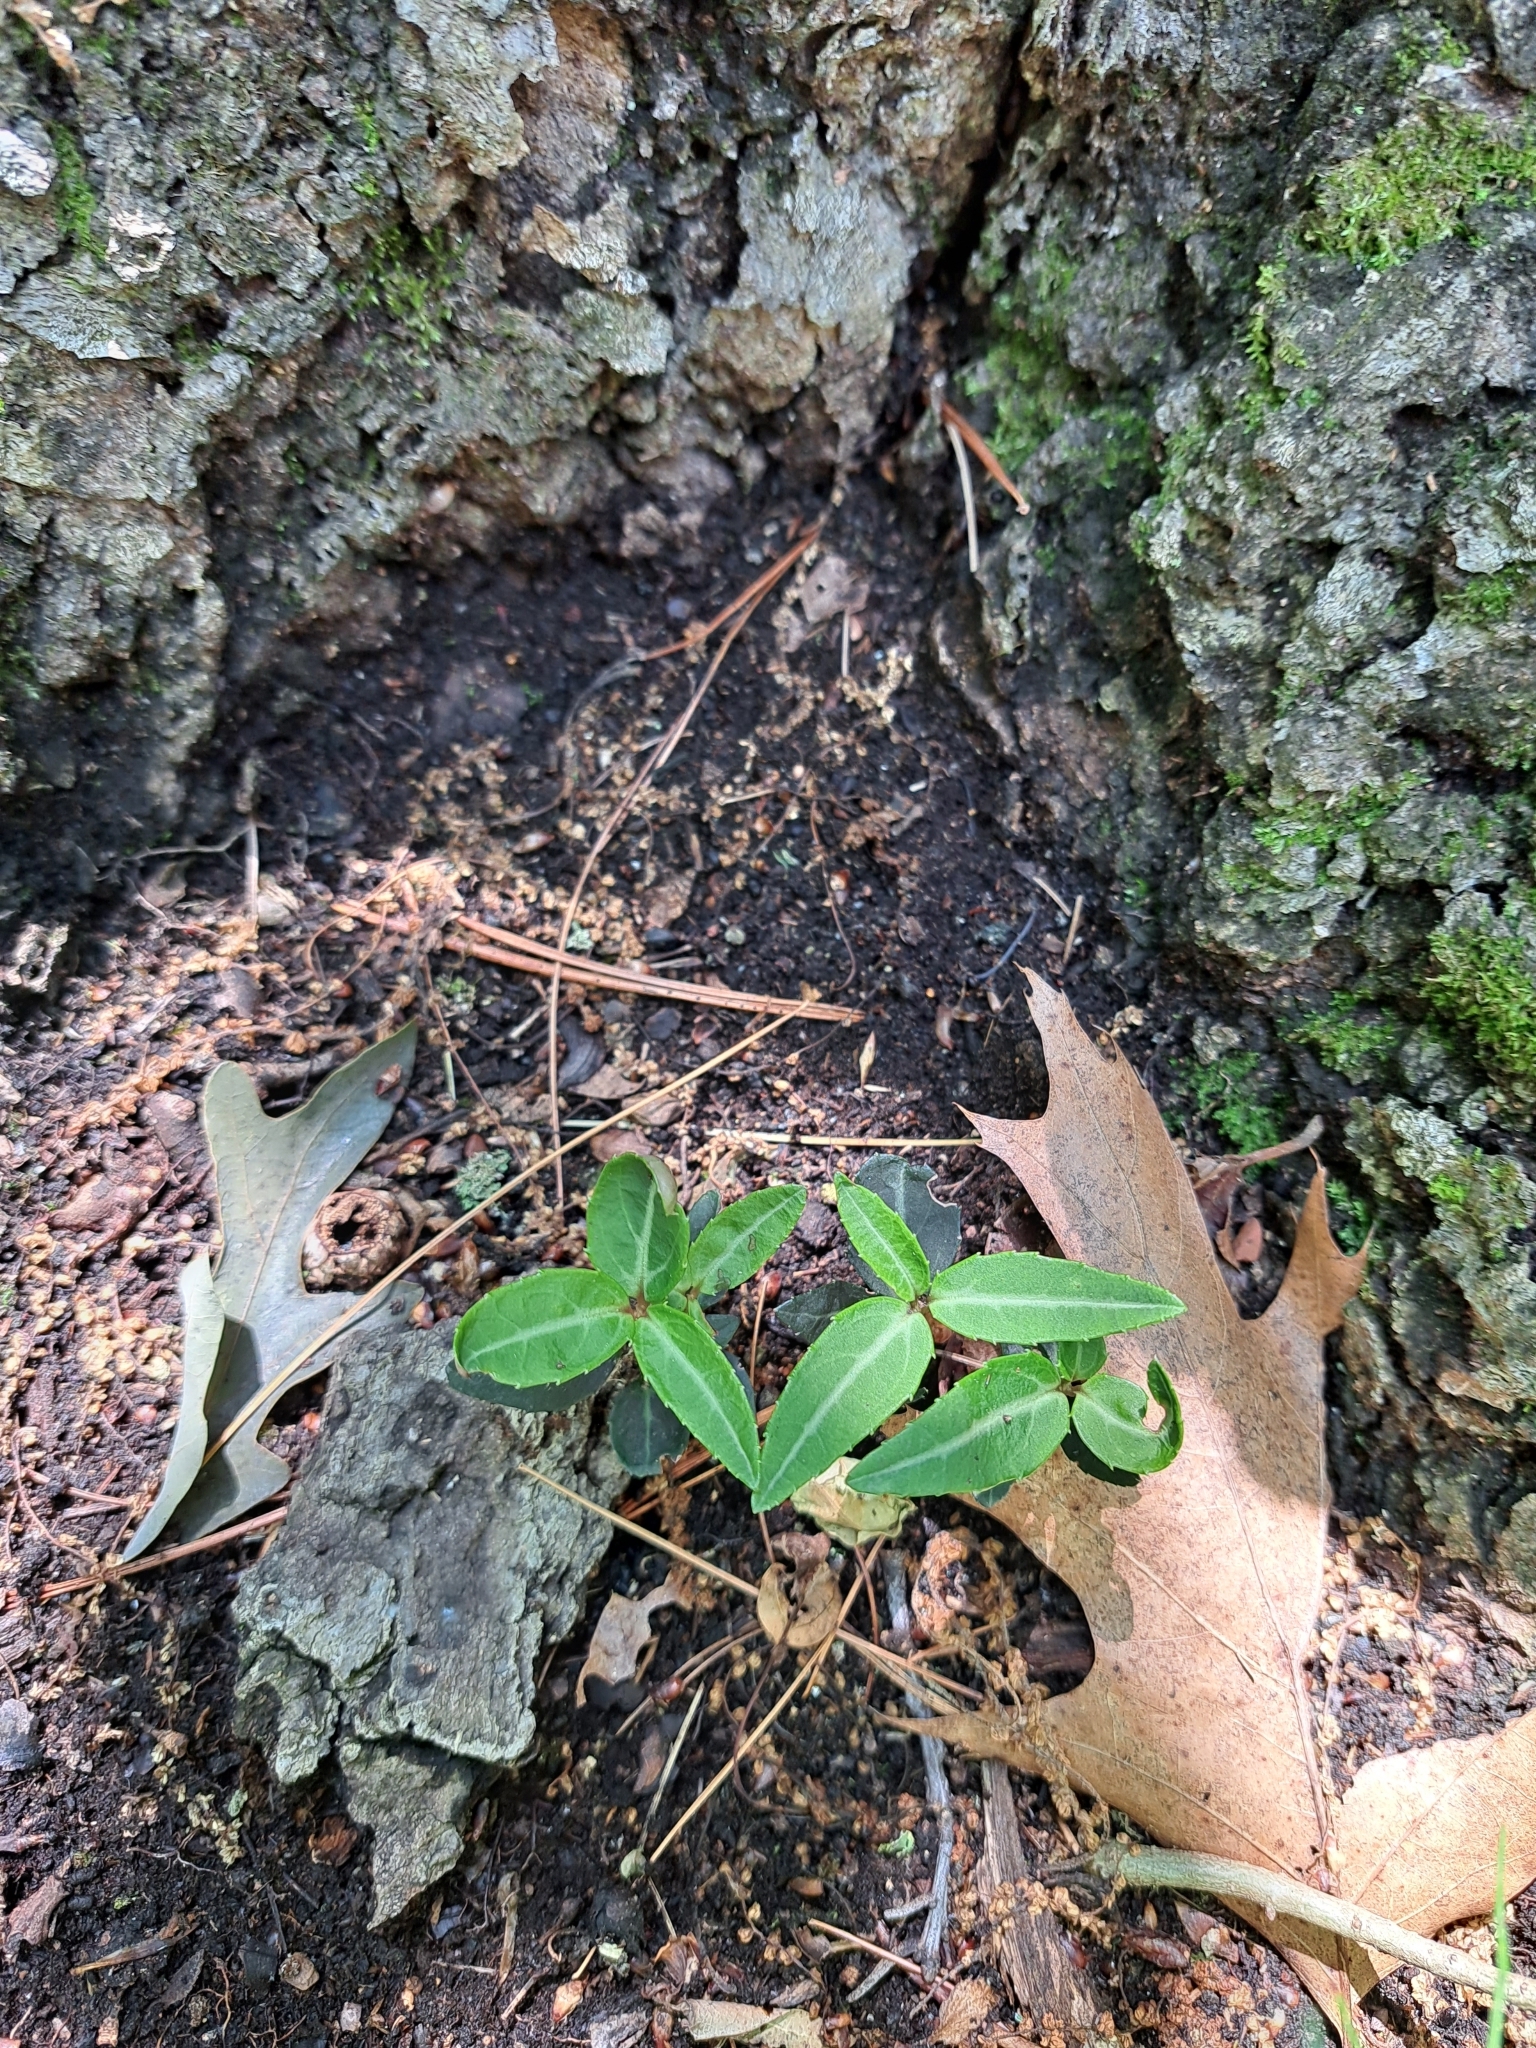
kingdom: Plantae
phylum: Tracheophyta
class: Magnoliopsida
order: Ericales
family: Ericaceae
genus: Chimaphila
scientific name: Chimaphila maculata
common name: Spotted pipsissewa
